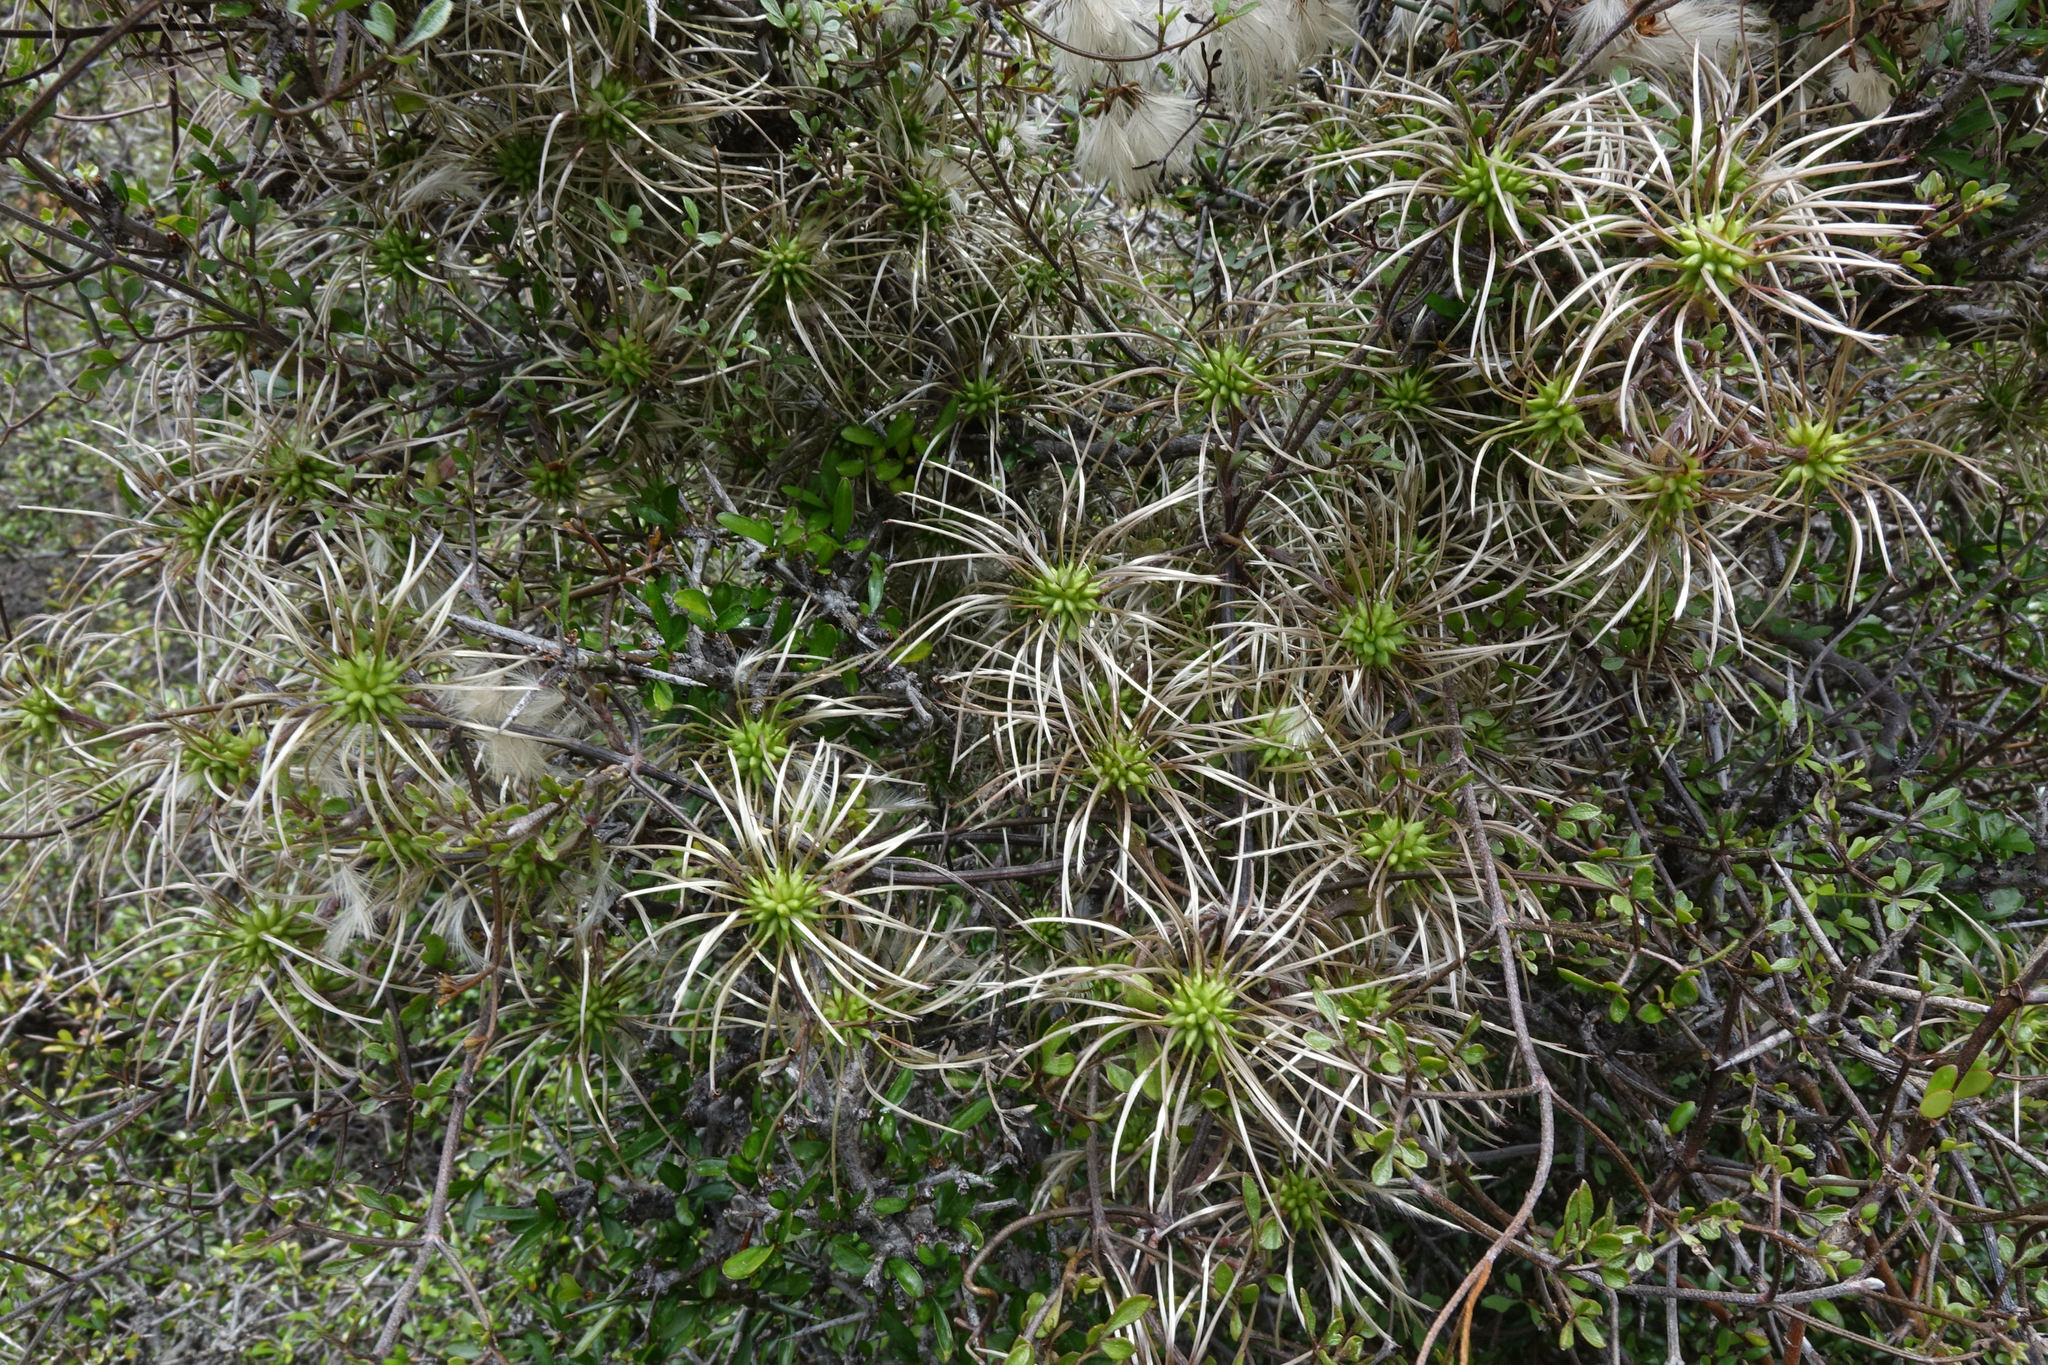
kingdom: Plantae
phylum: Tracheophyta
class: Magnoliopsida
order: Ranunculales
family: Ranunculaceae
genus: Clematis
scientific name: Clematis marata
